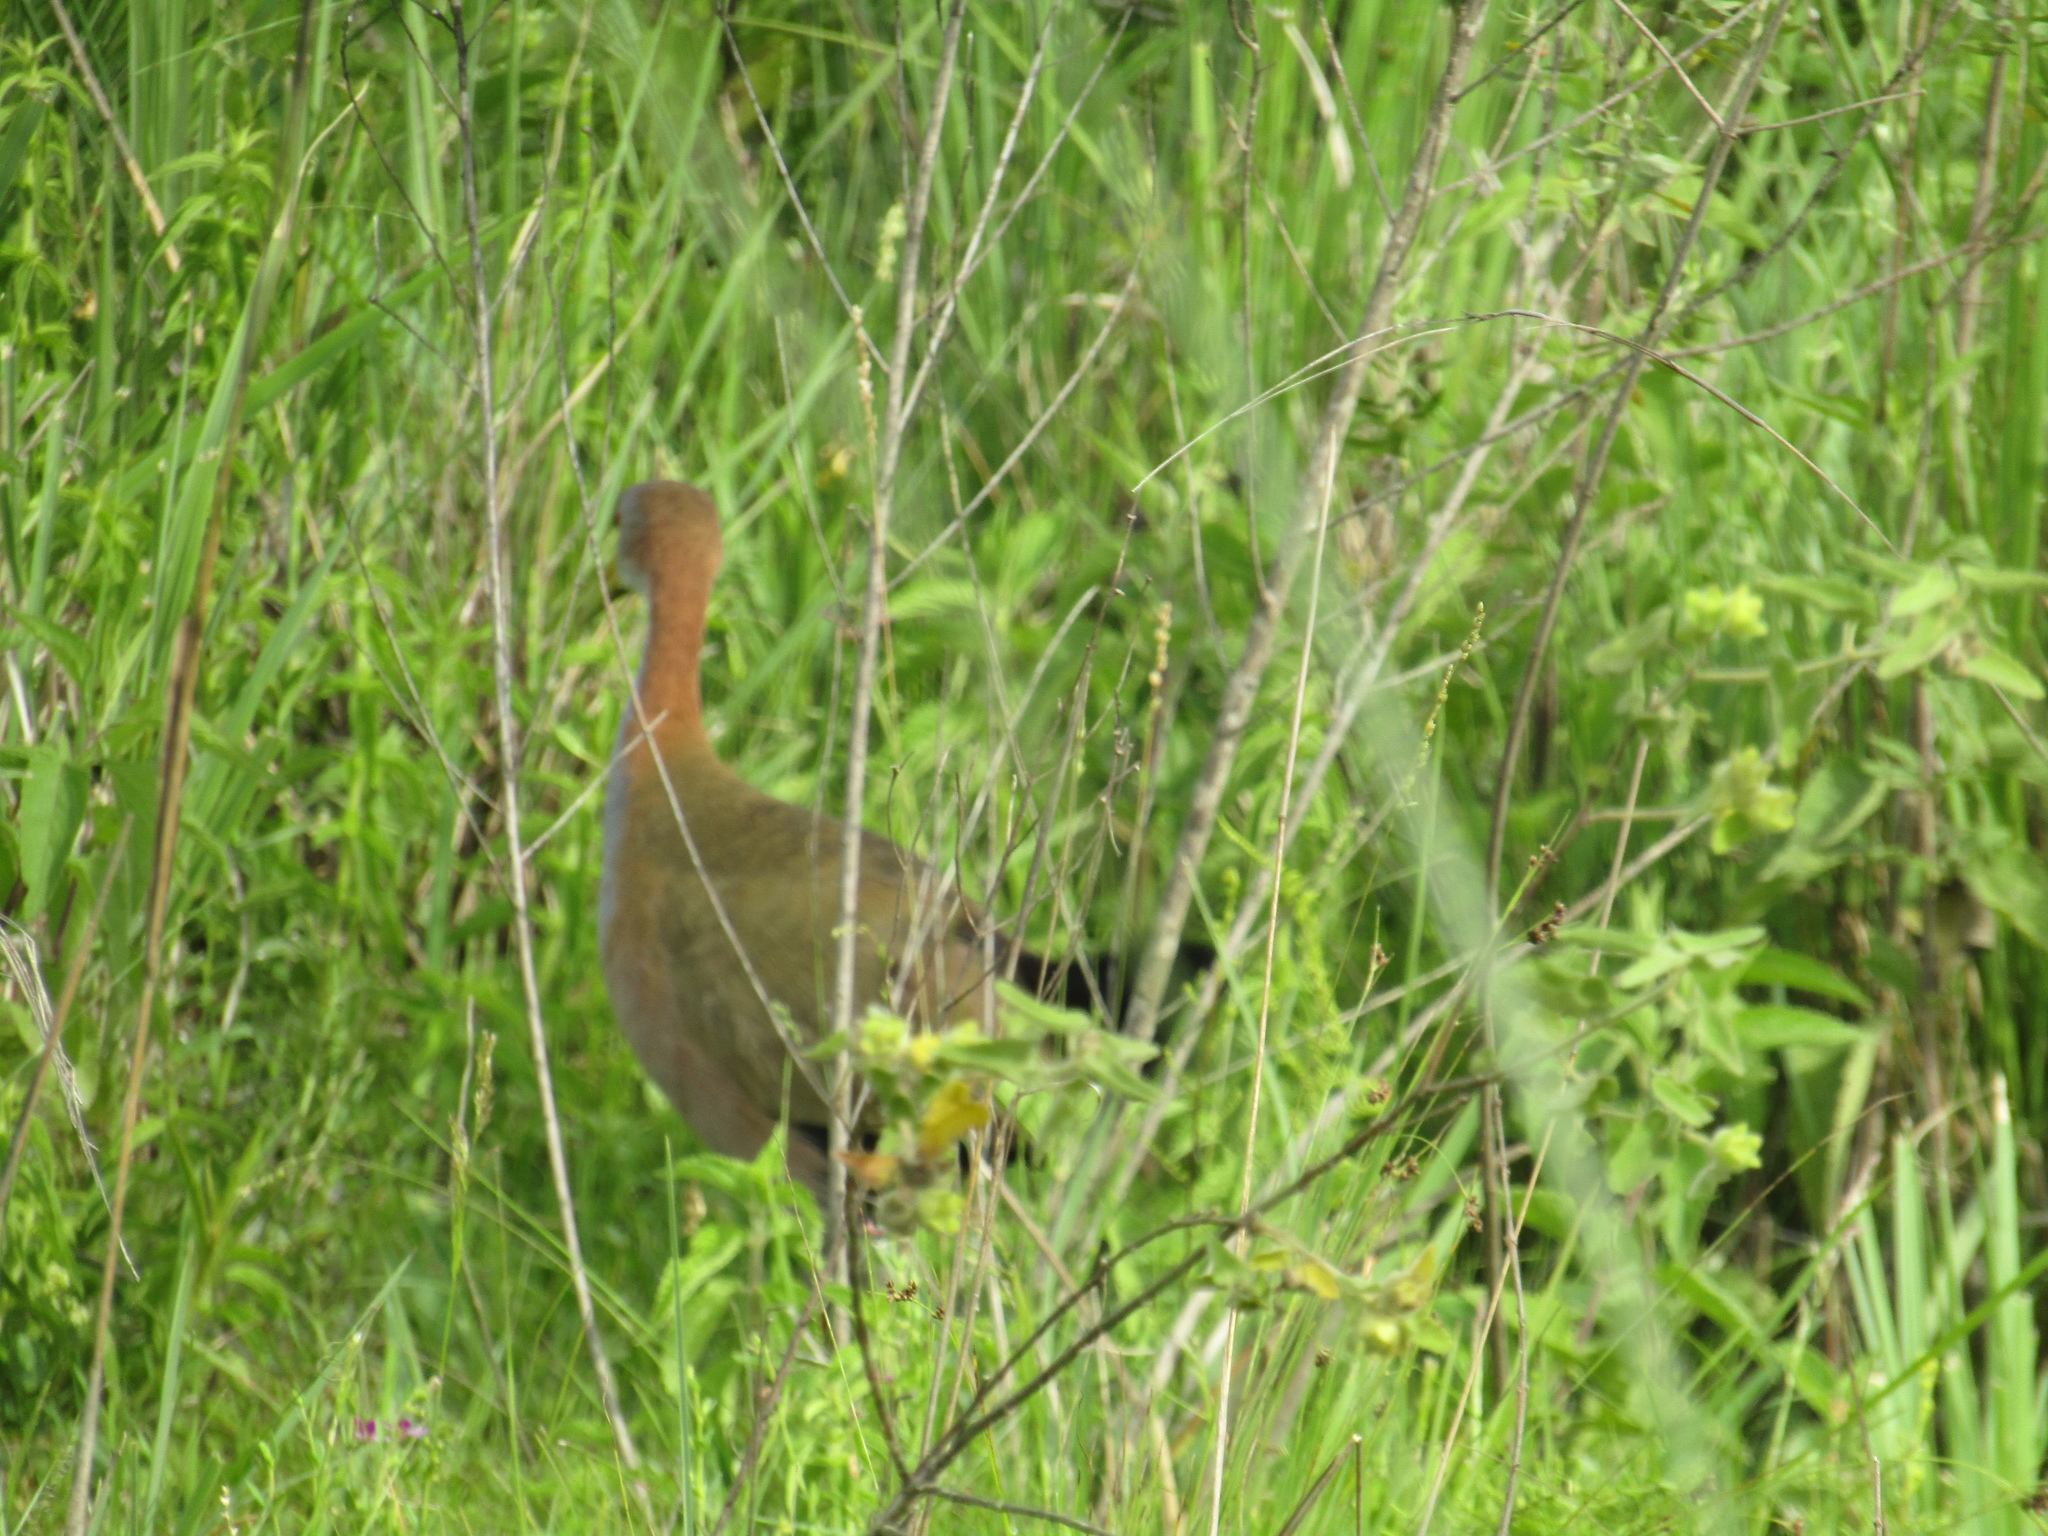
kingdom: Animalia
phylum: Chordata
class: Aves
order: Gruiformes
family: Rallidae
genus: Aramides
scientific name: Aramides ypecaha
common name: Giant wood rail
